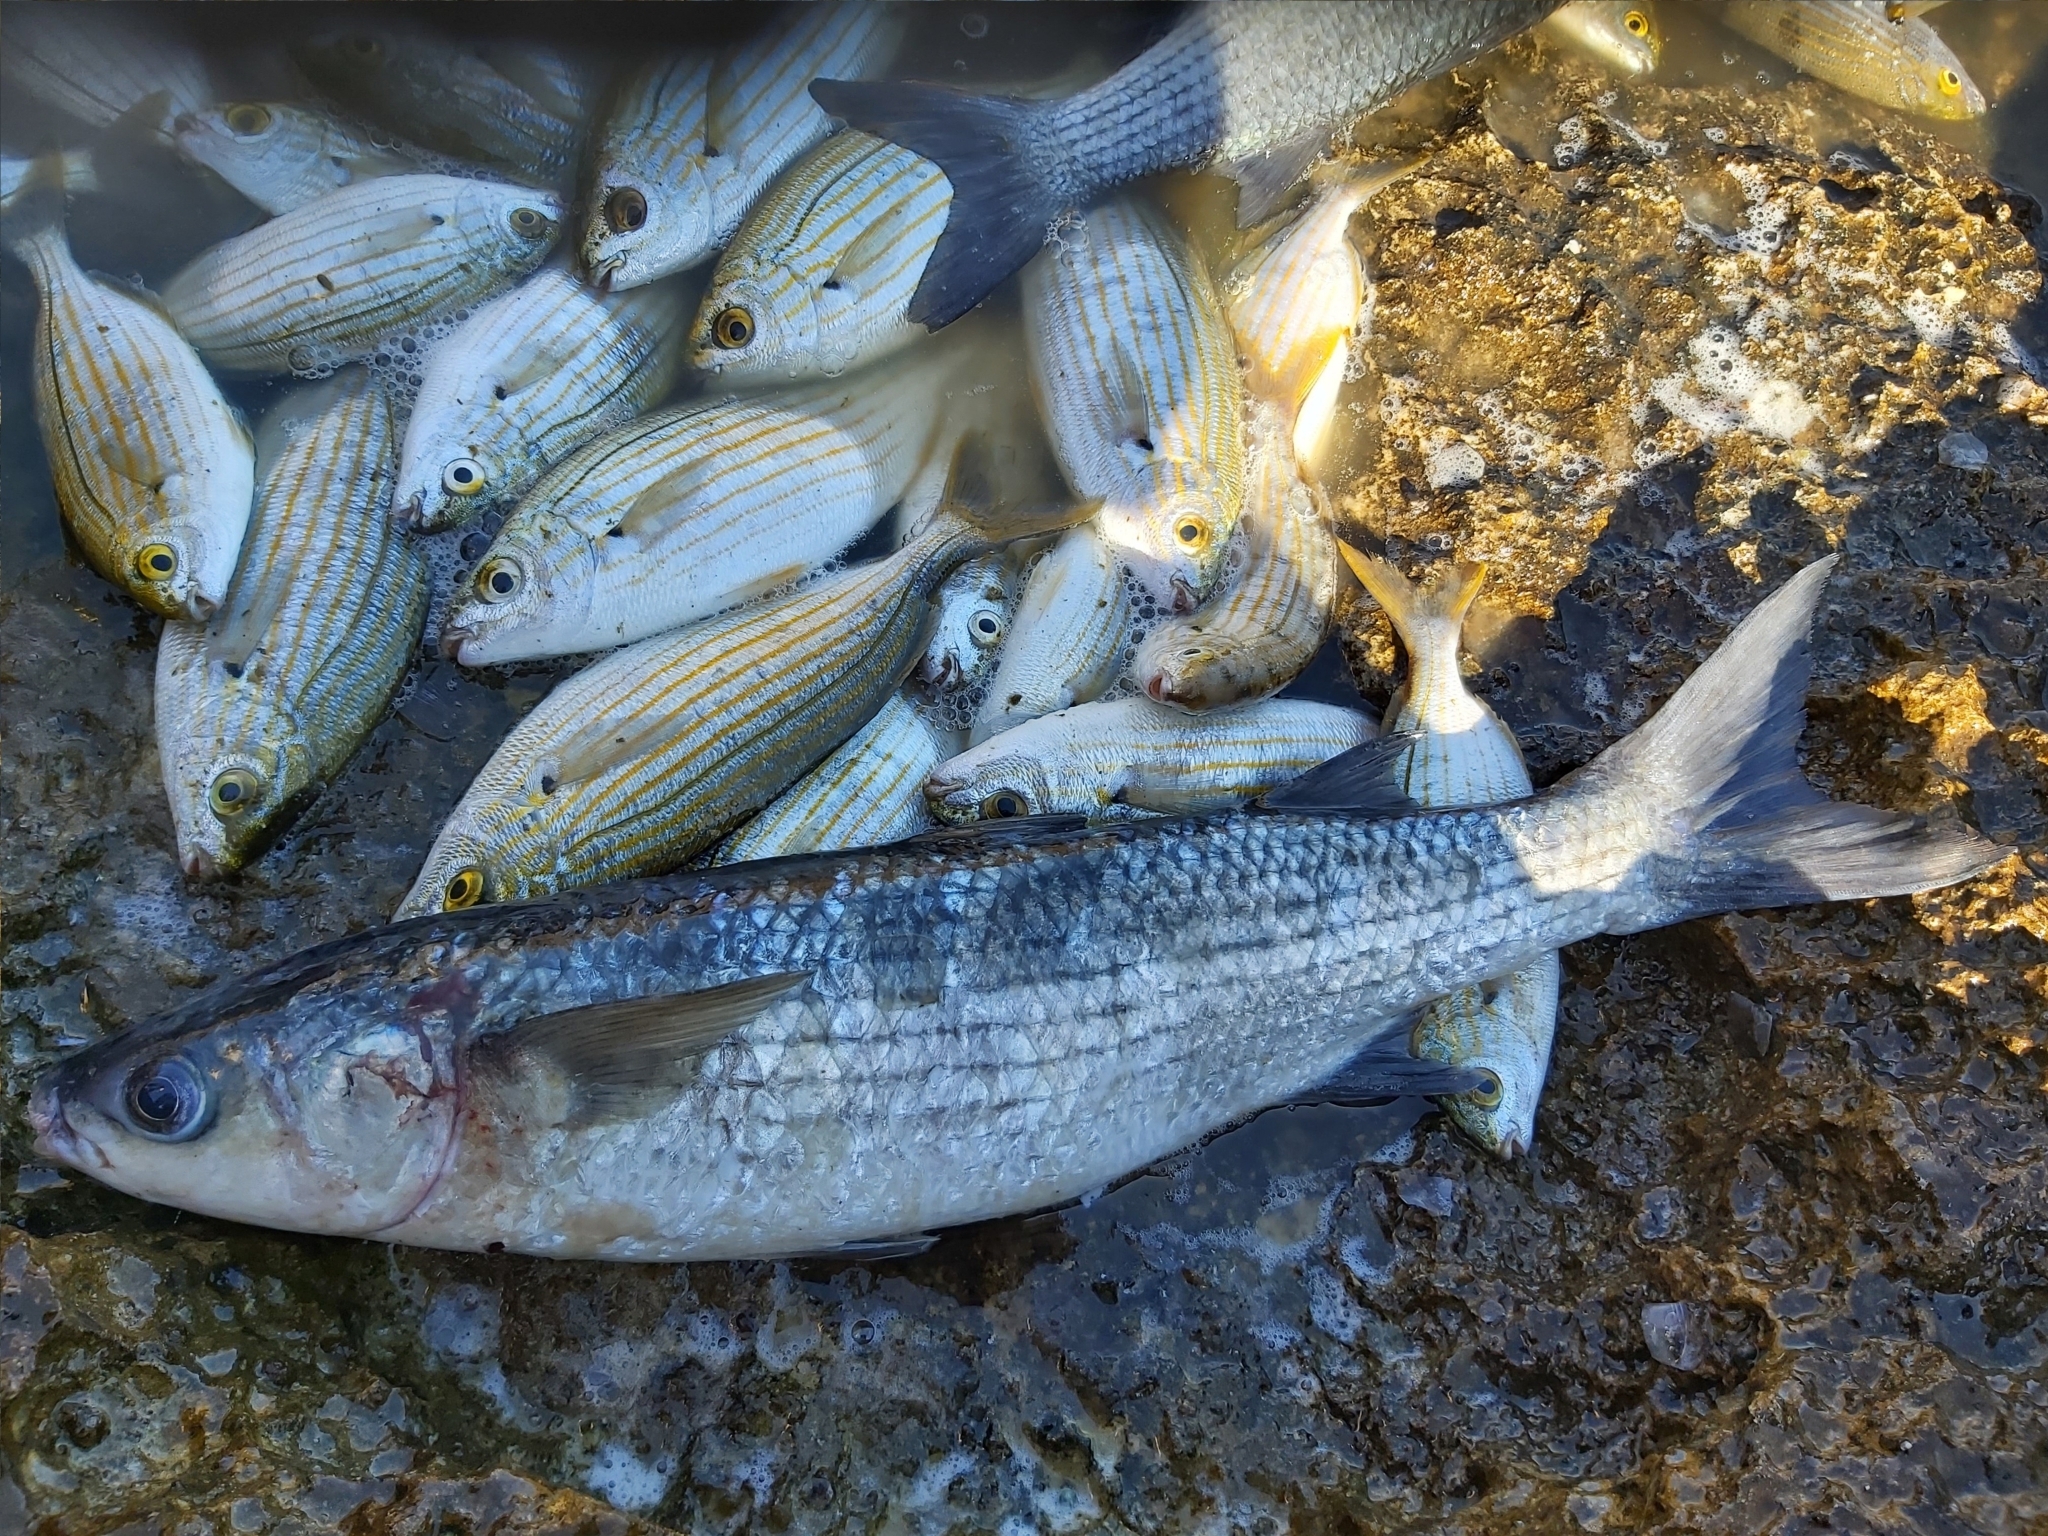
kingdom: Animalia
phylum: Chordata
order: Mugiliformes
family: Mugilidae
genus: Chelon
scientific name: Chelon labrosus
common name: Thick-lipped mullet
